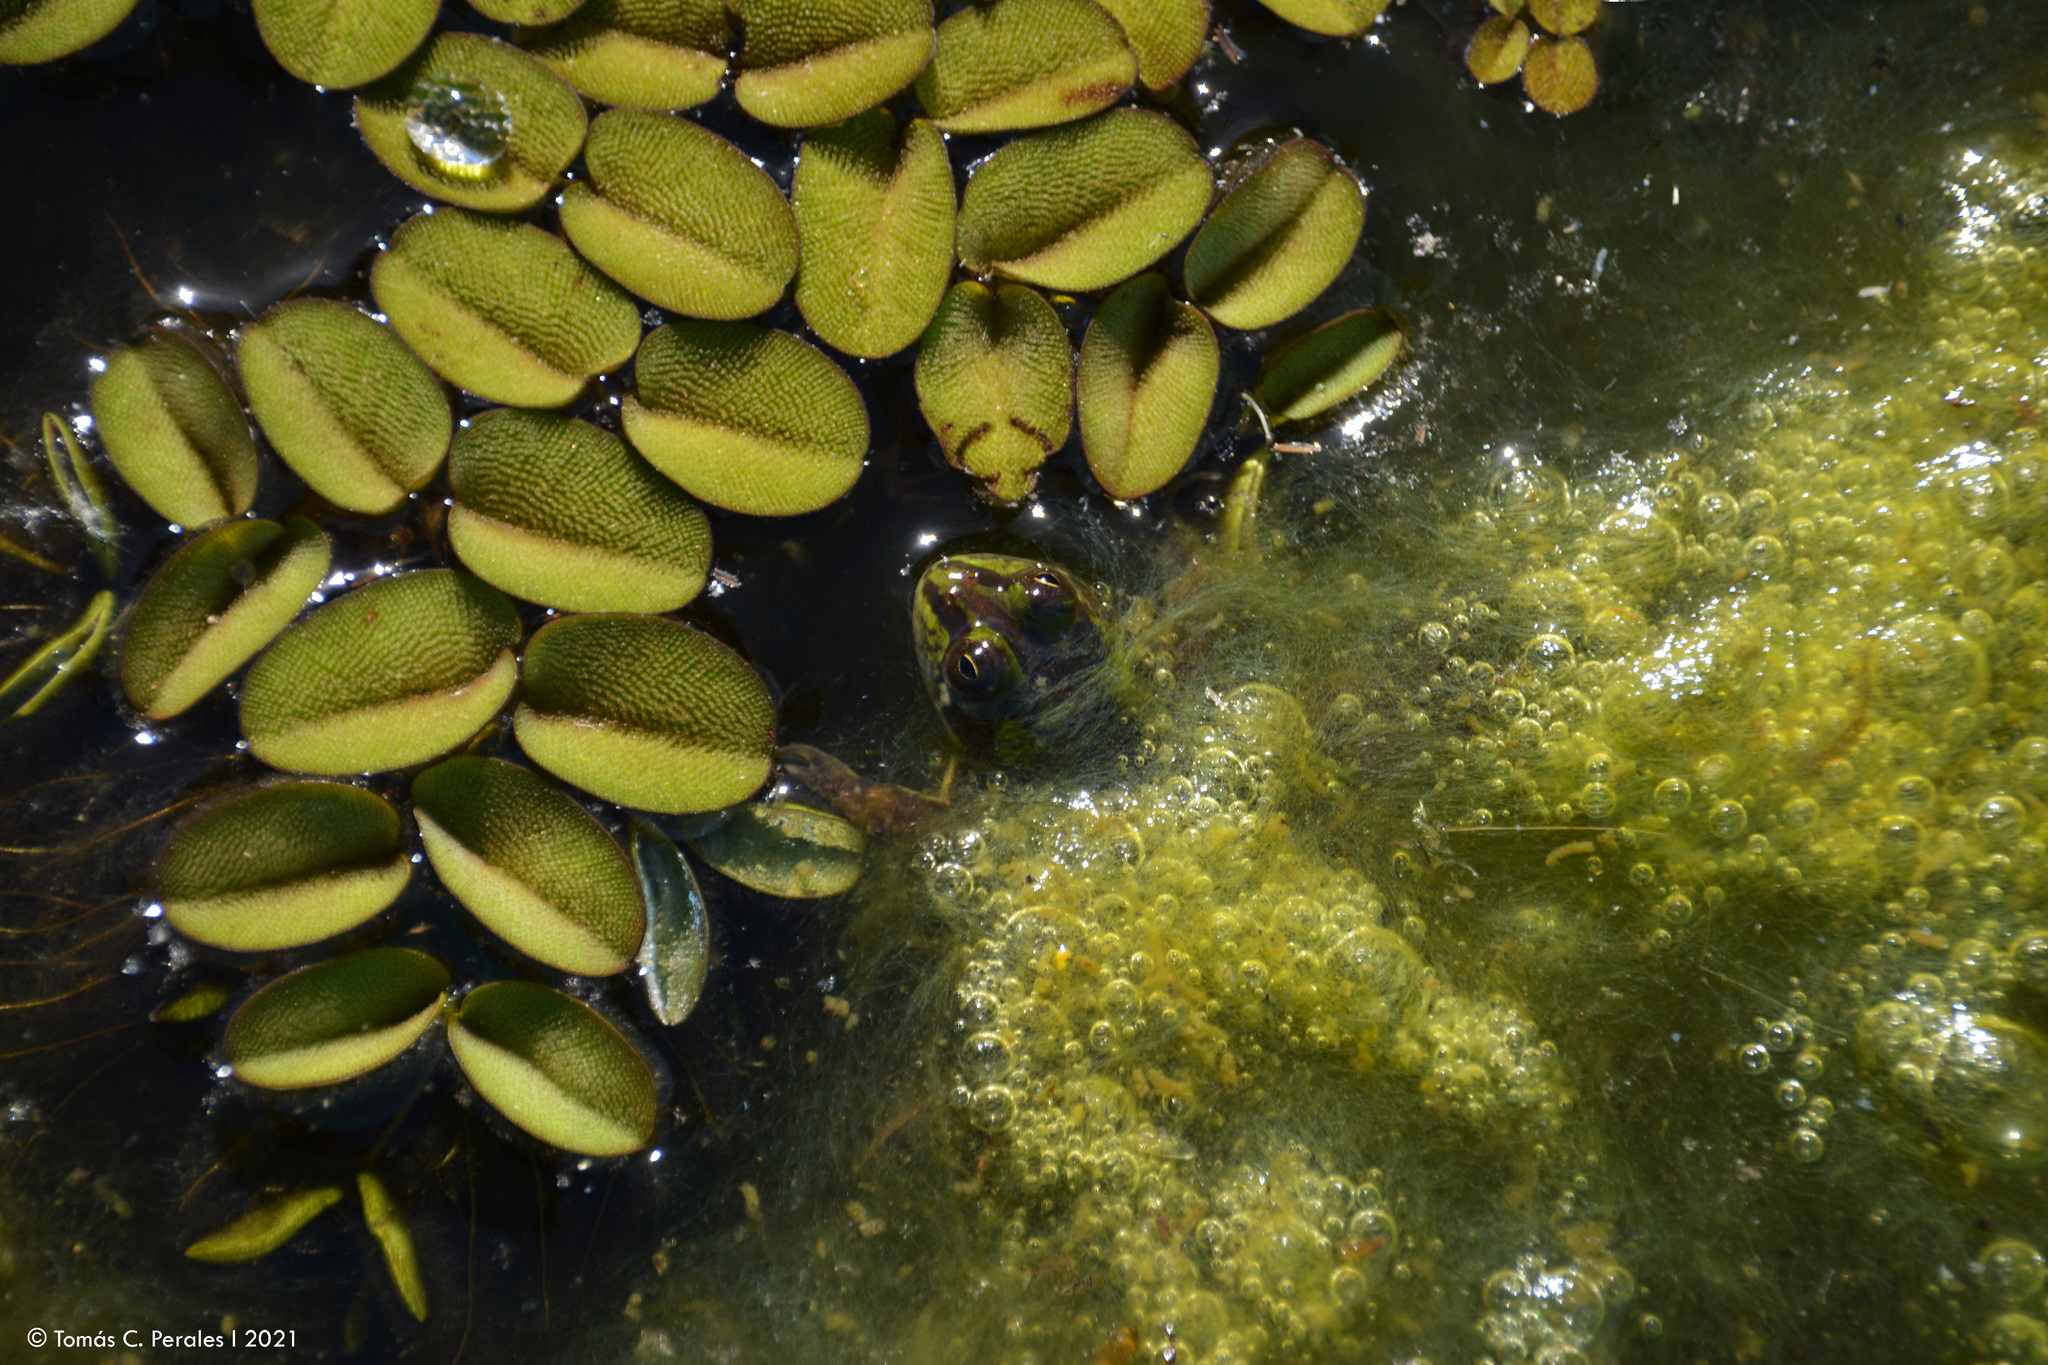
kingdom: Animalia
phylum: Chordata
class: Amphibia
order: Anura
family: Hylidae
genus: Pseudis
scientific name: Pseudis minuta
